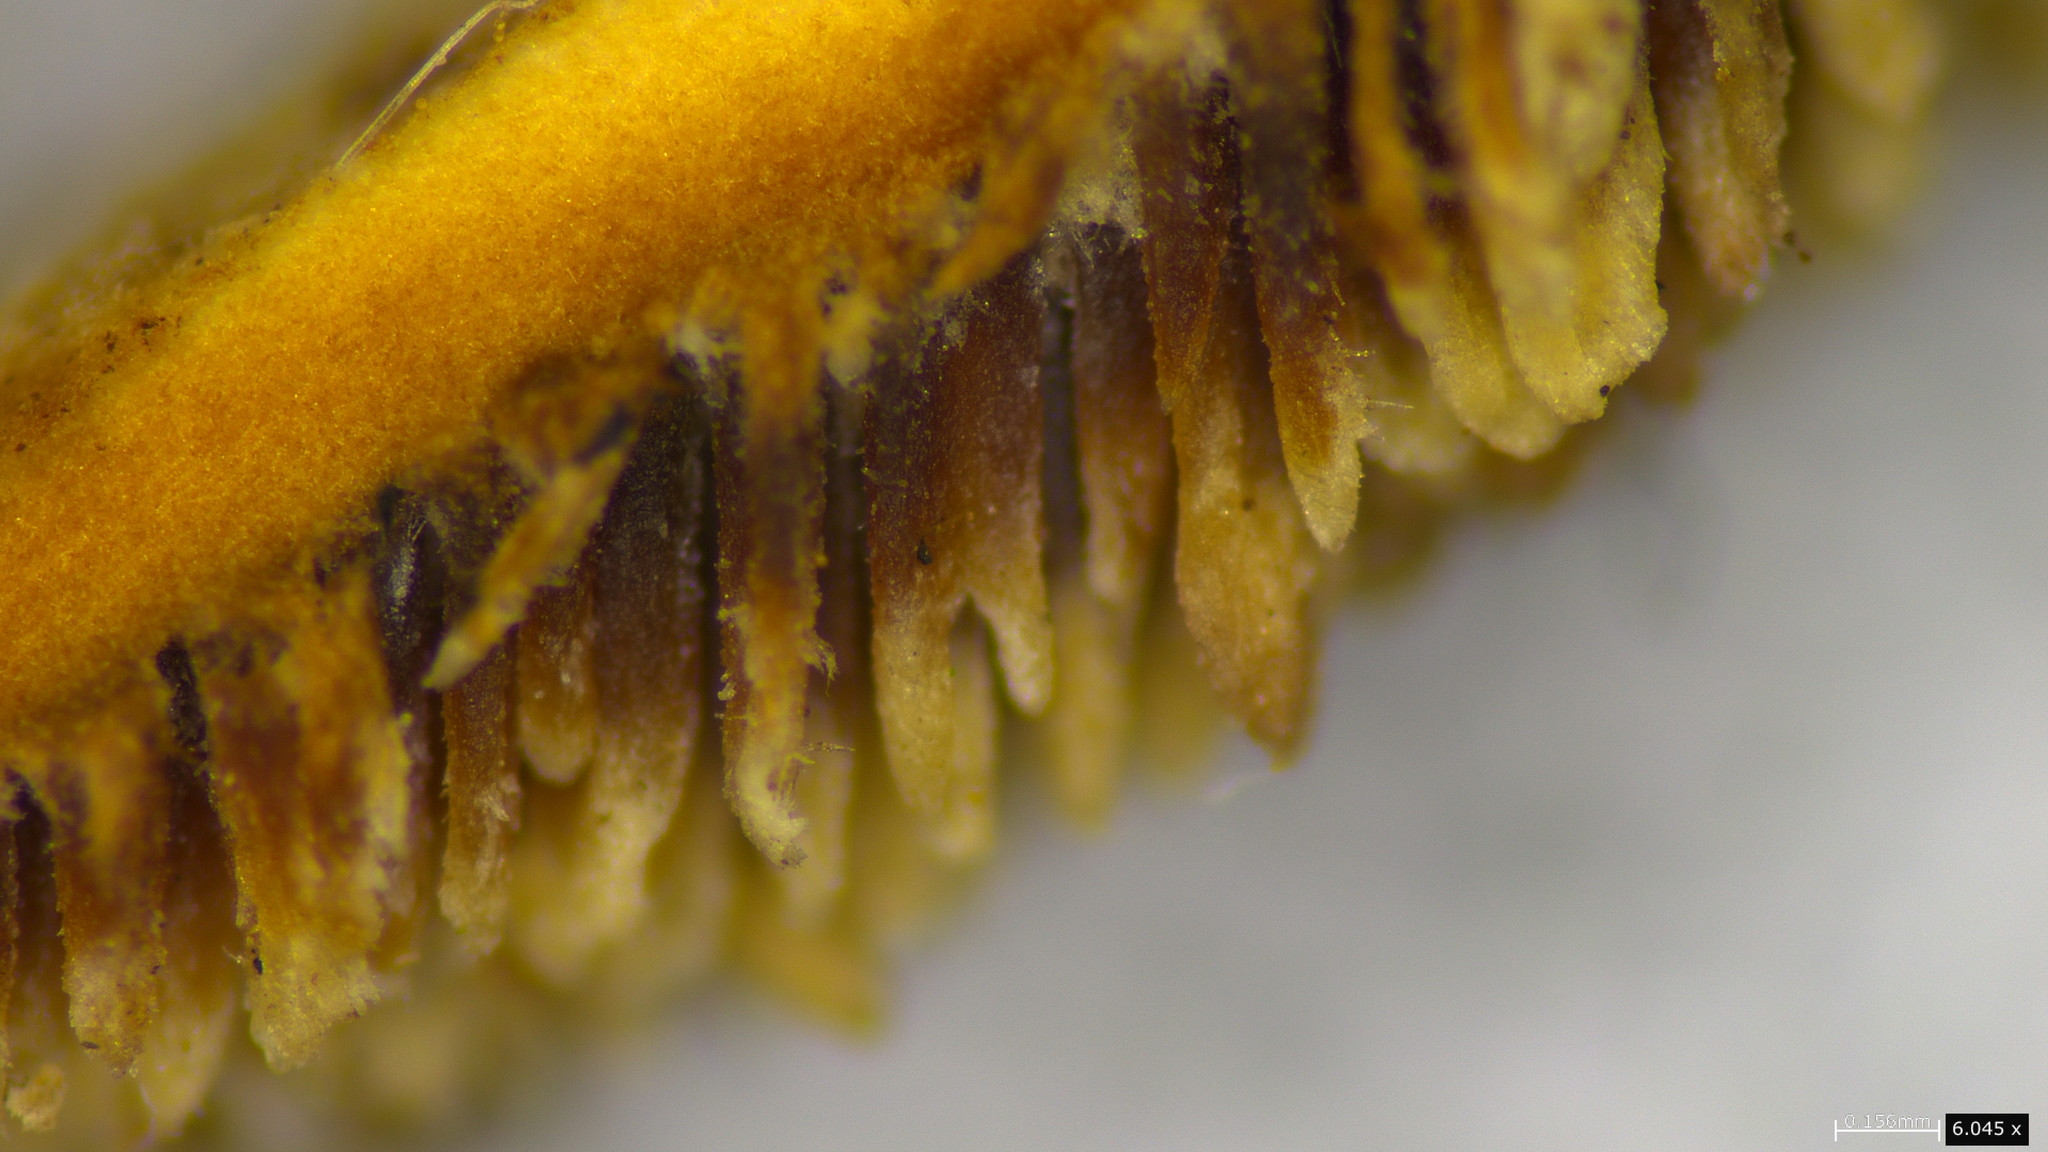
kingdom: Fungi
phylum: Basidiomycota
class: Agaricomycetes
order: Polyporales
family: Steccherinaceae
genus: Metuloidea
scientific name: Metuloidea murashkinskyi
